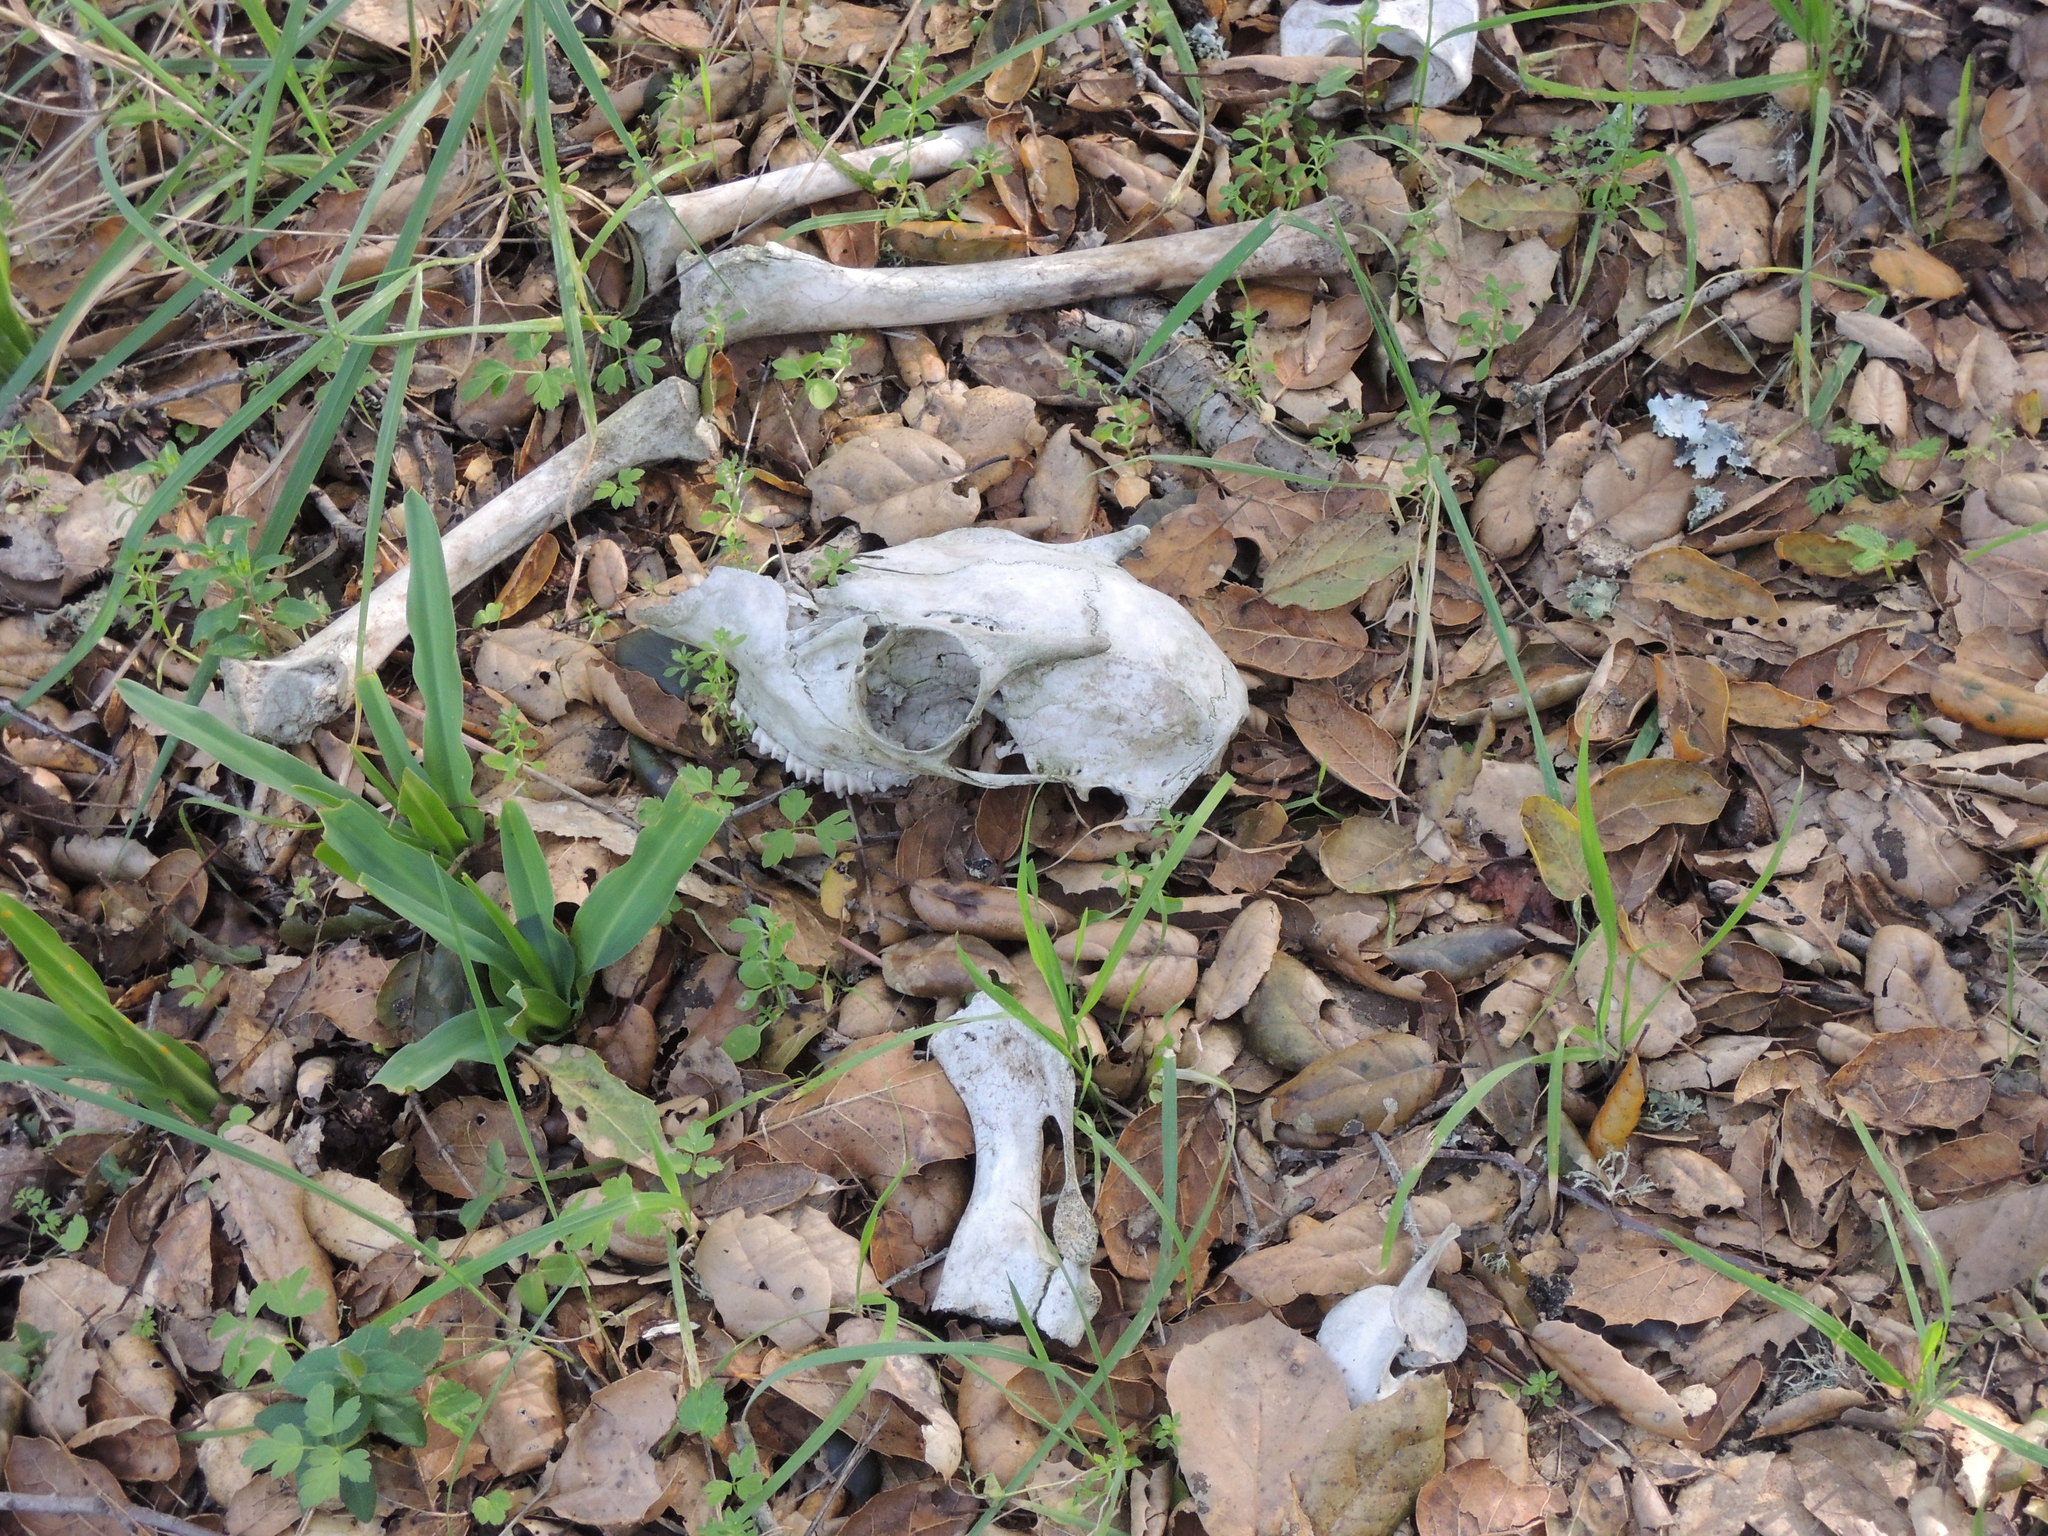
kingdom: Animalia
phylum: Chordata
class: Mammalia
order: Artiodactyla
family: Cervidae
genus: Odocoileus
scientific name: Odocoileus hemionus
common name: Mule deer
